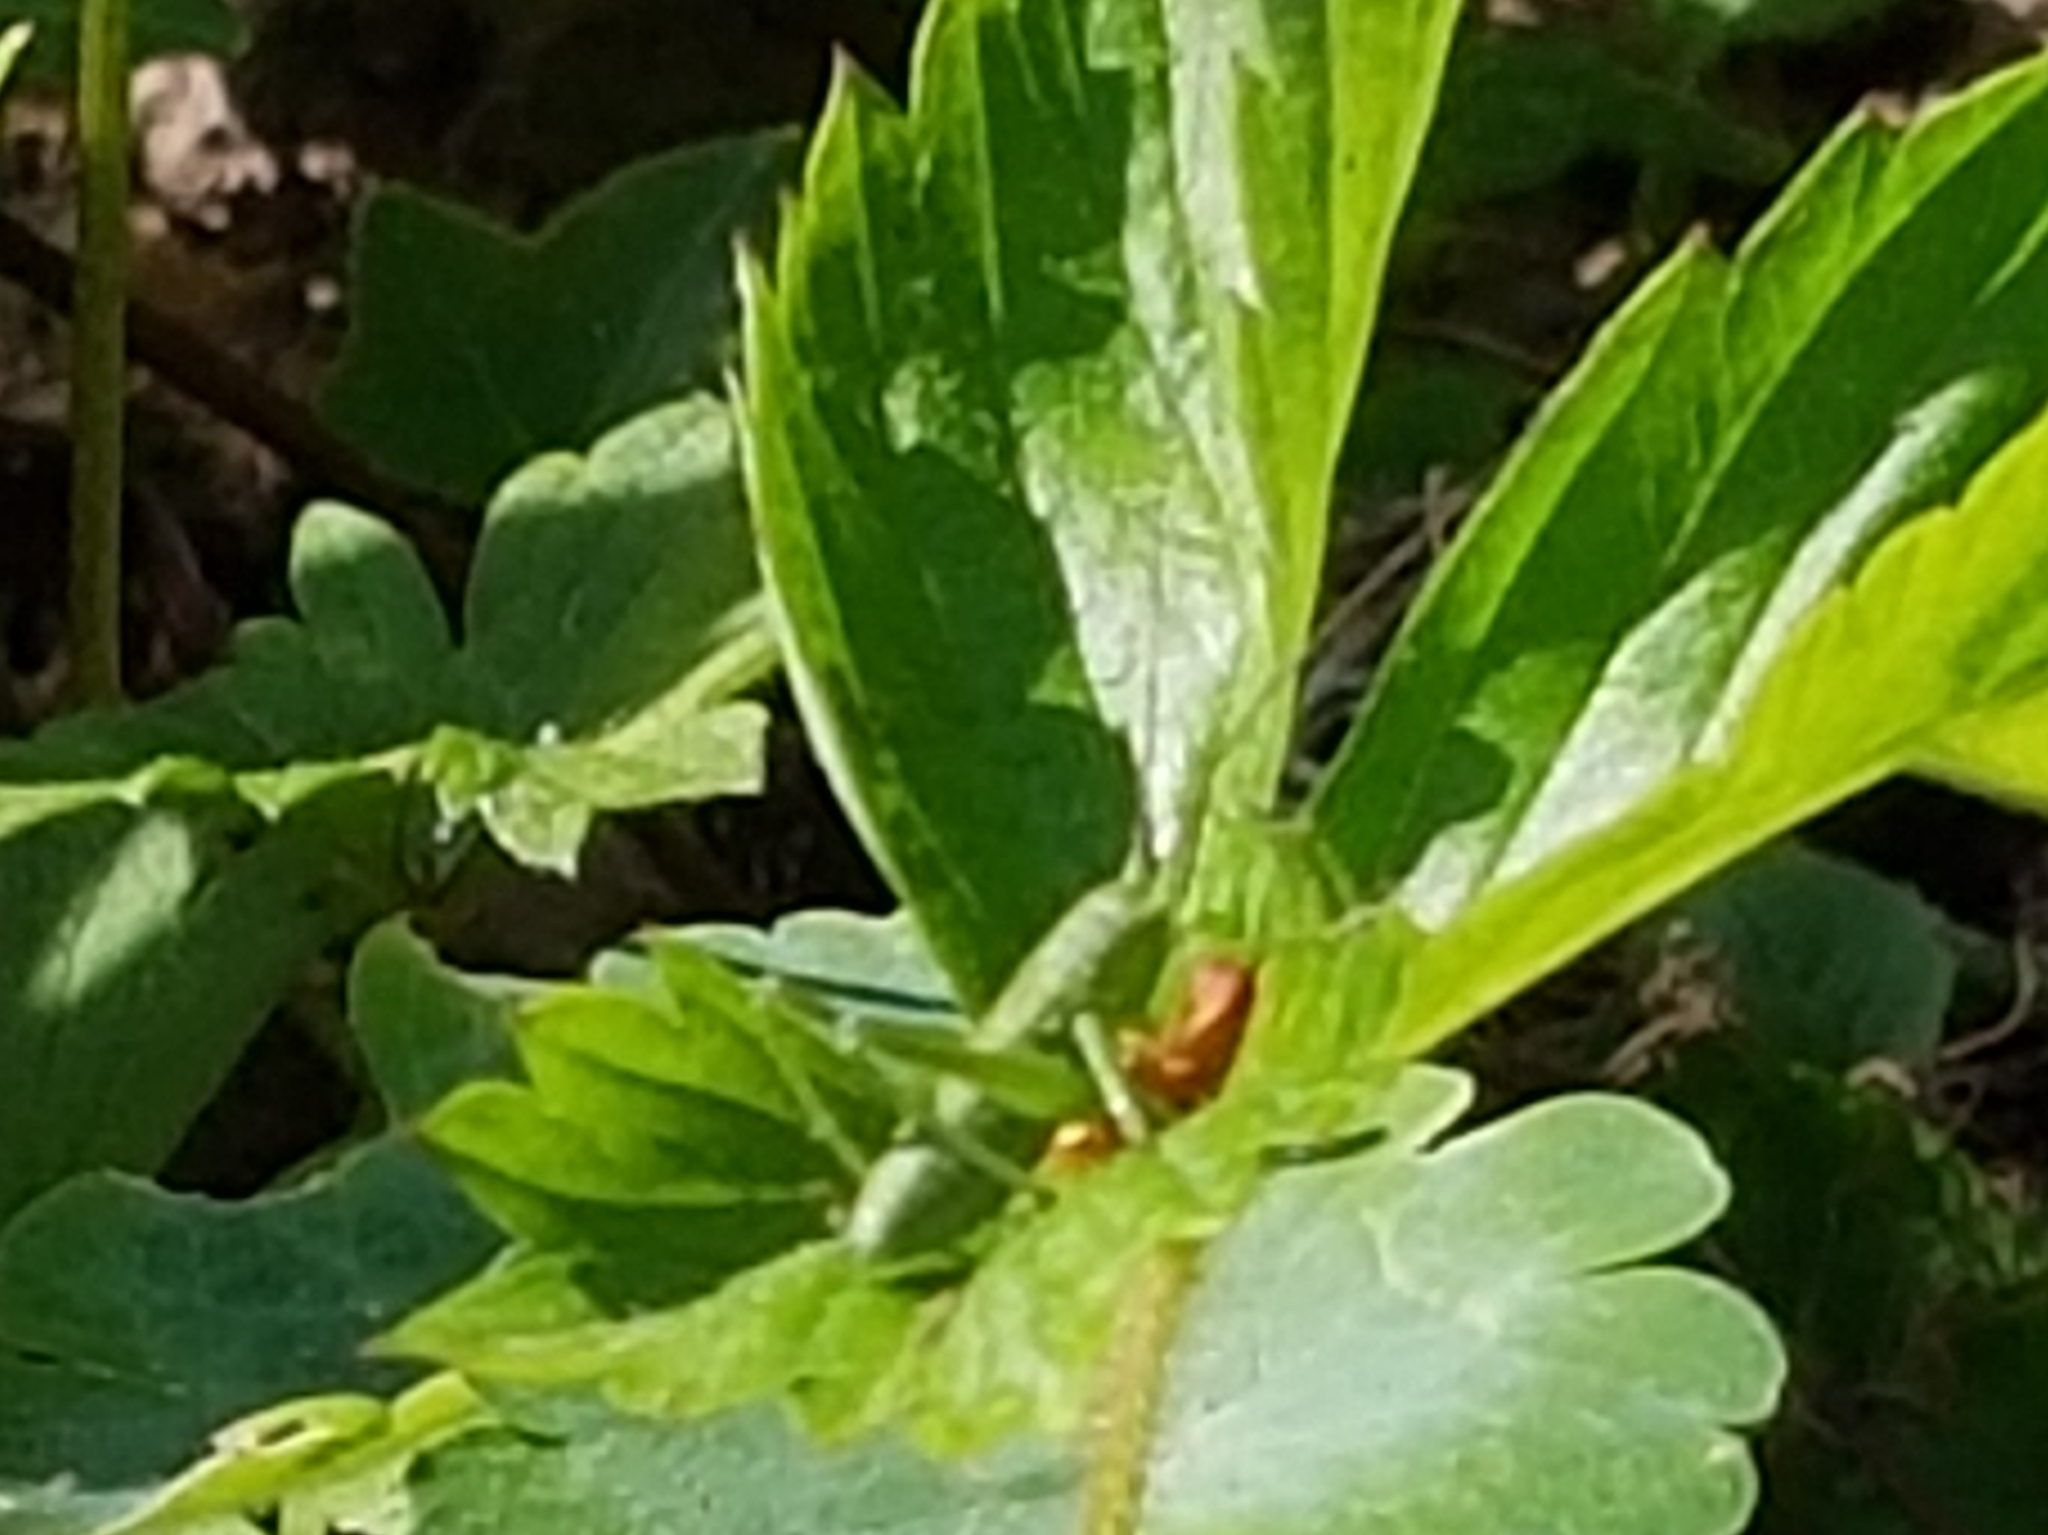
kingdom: Animalia
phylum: Arthropoda
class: Insecta
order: Orthoptera
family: Tettigoniidae
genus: Tettigonia
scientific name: Tettigonia viridissima
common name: Great green bush-cricket
